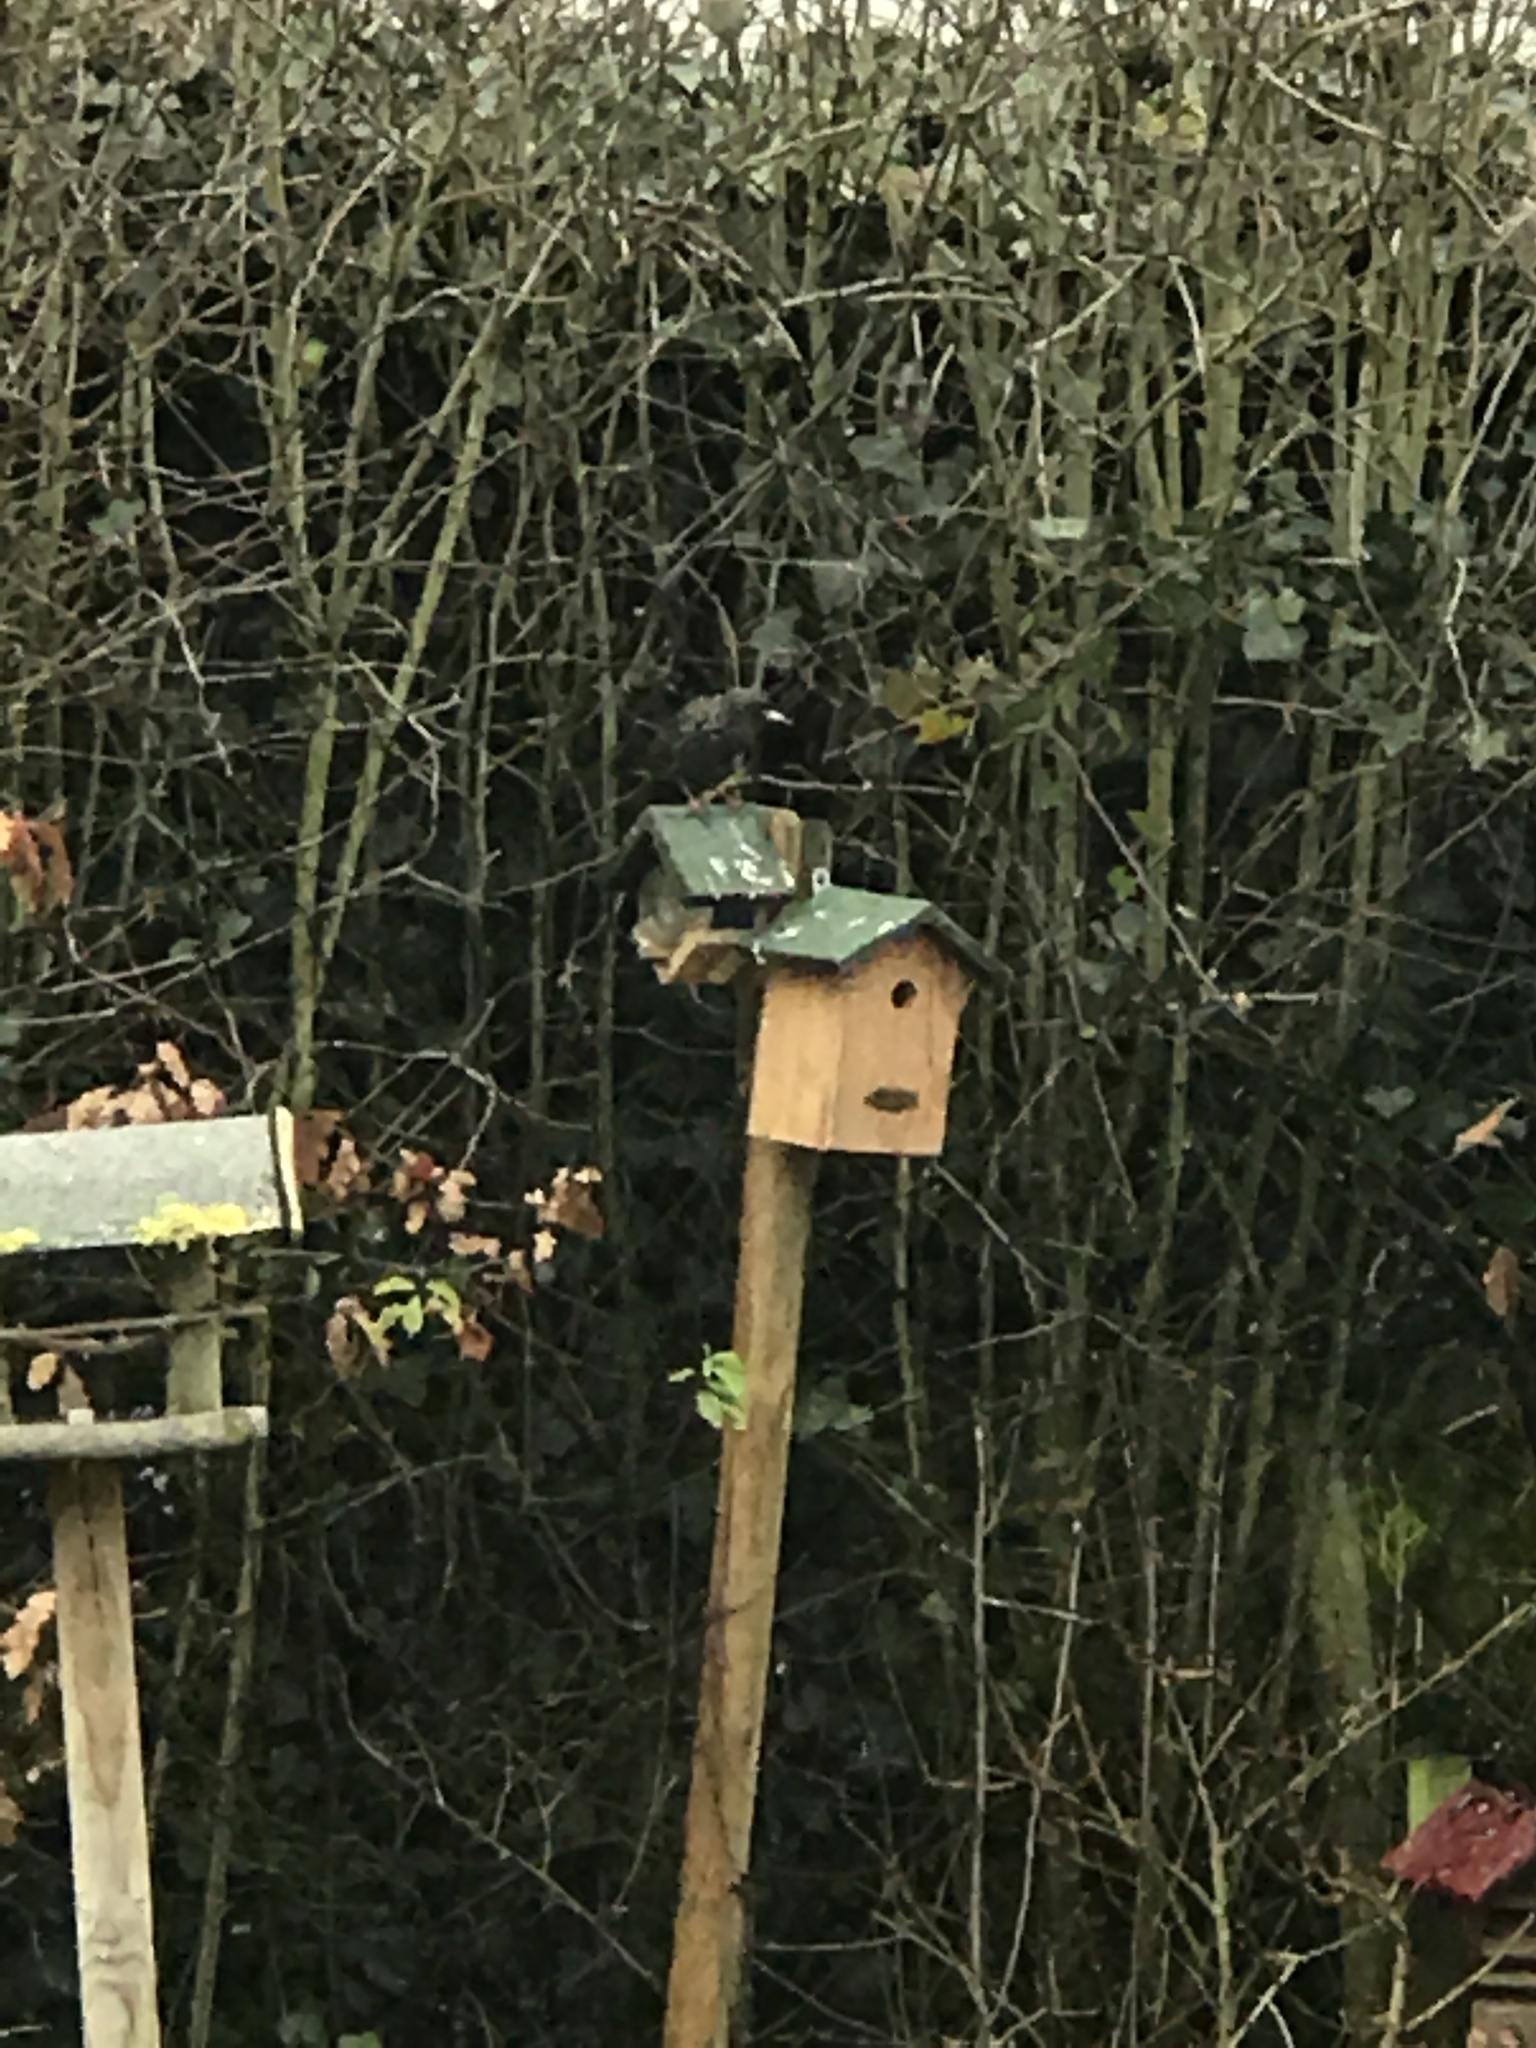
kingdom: Animalia
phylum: Chordata
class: Aves
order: Passeriformes
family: Sturnidae
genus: Sturnus
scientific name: Sturnus vulgaris
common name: Common starling
